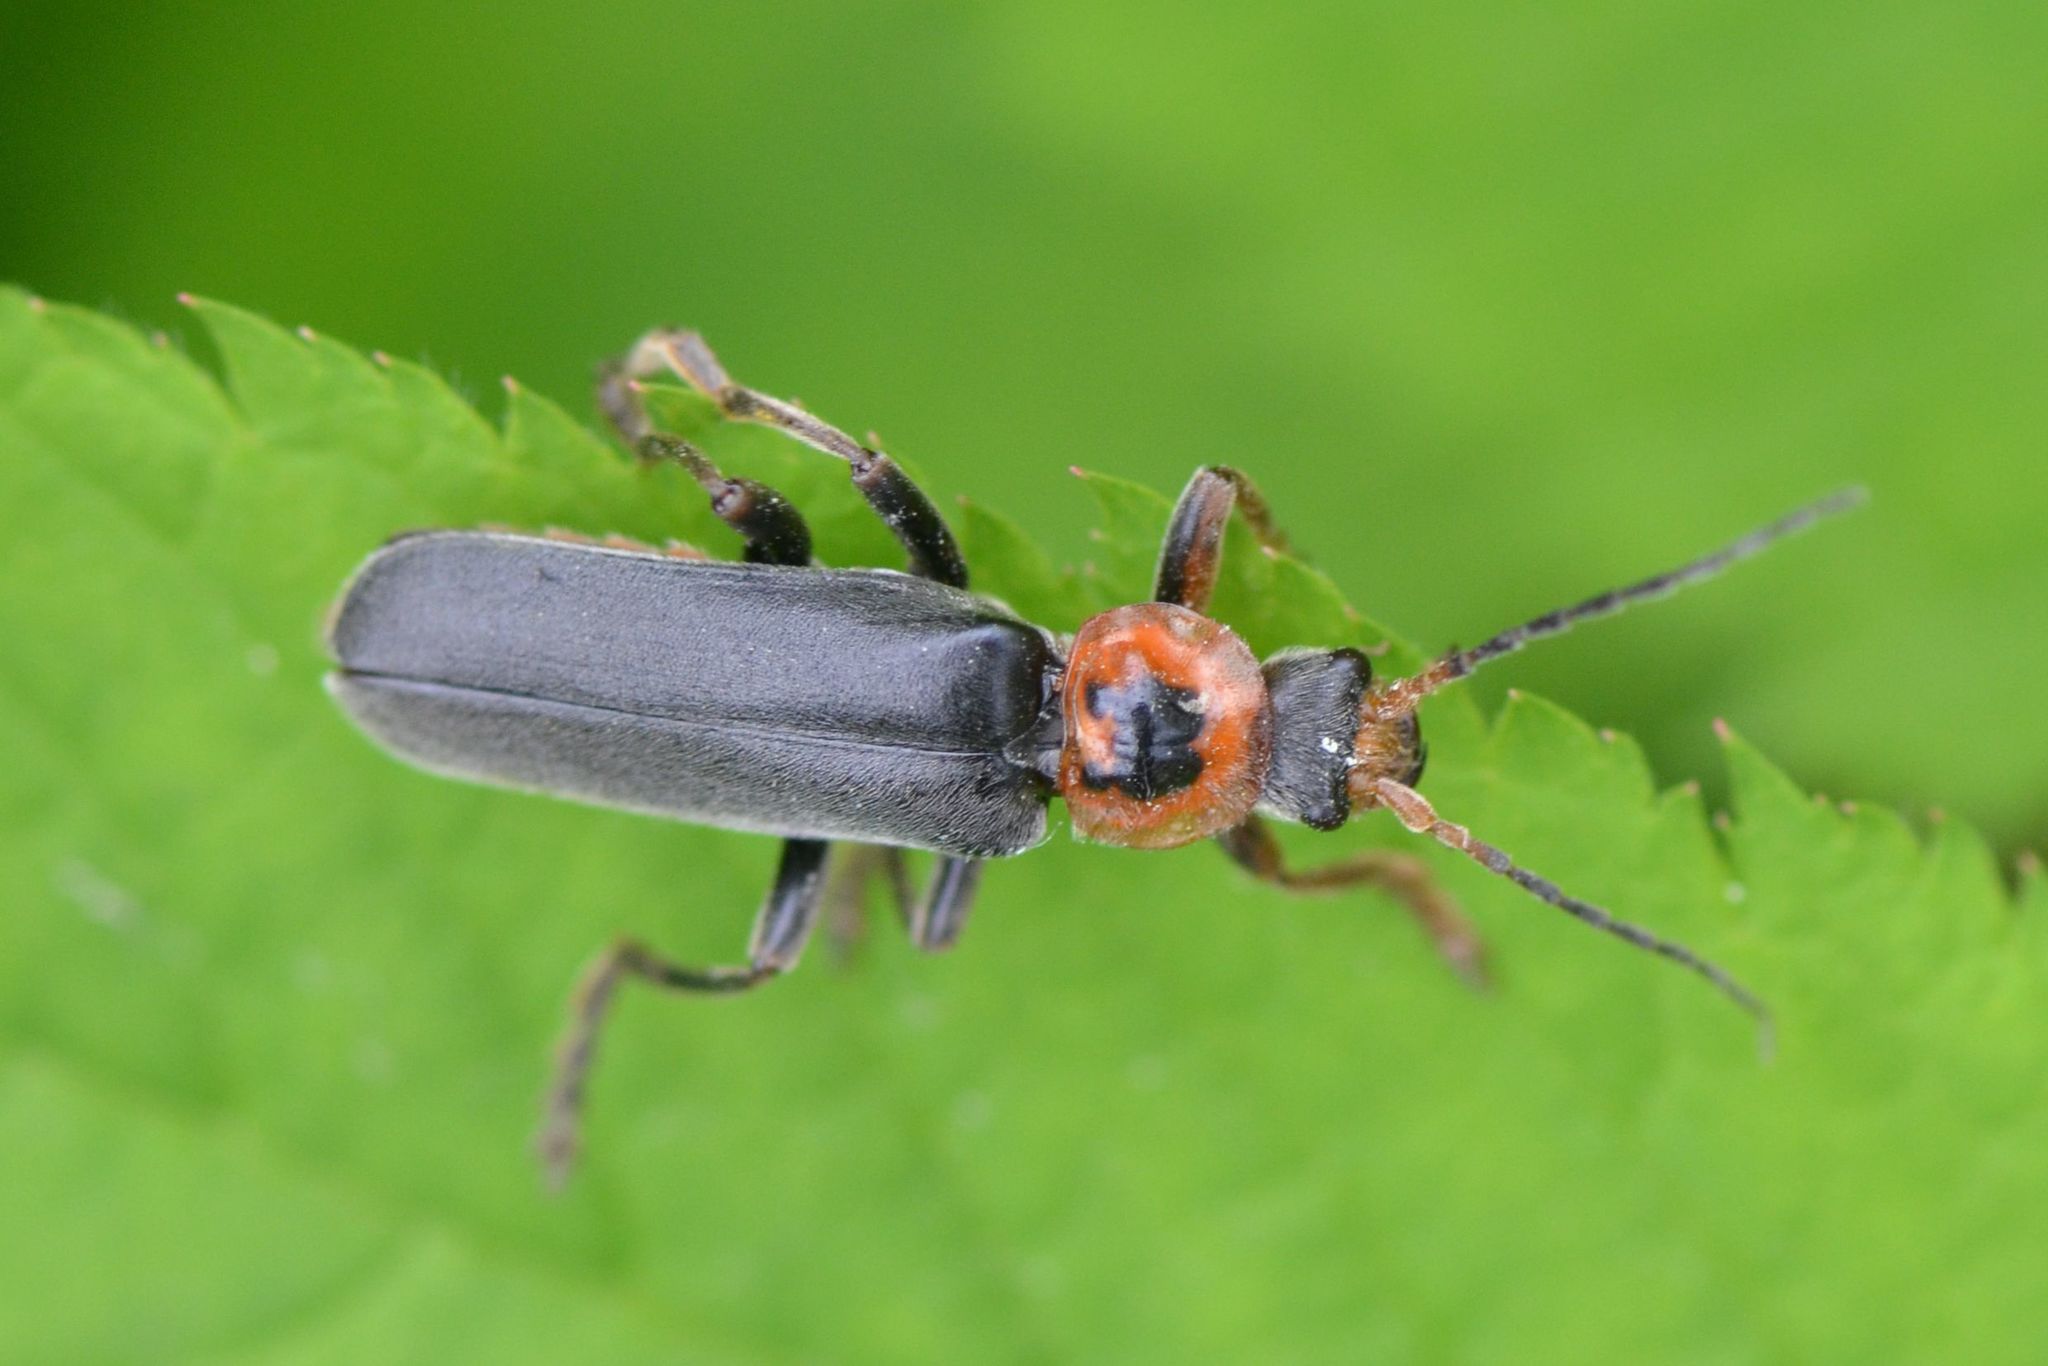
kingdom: Animalia
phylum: Arthropoda
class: Insecta
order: Coleoptera
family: Cantharidae
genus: Cantharis
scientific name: Cantharis annularis
